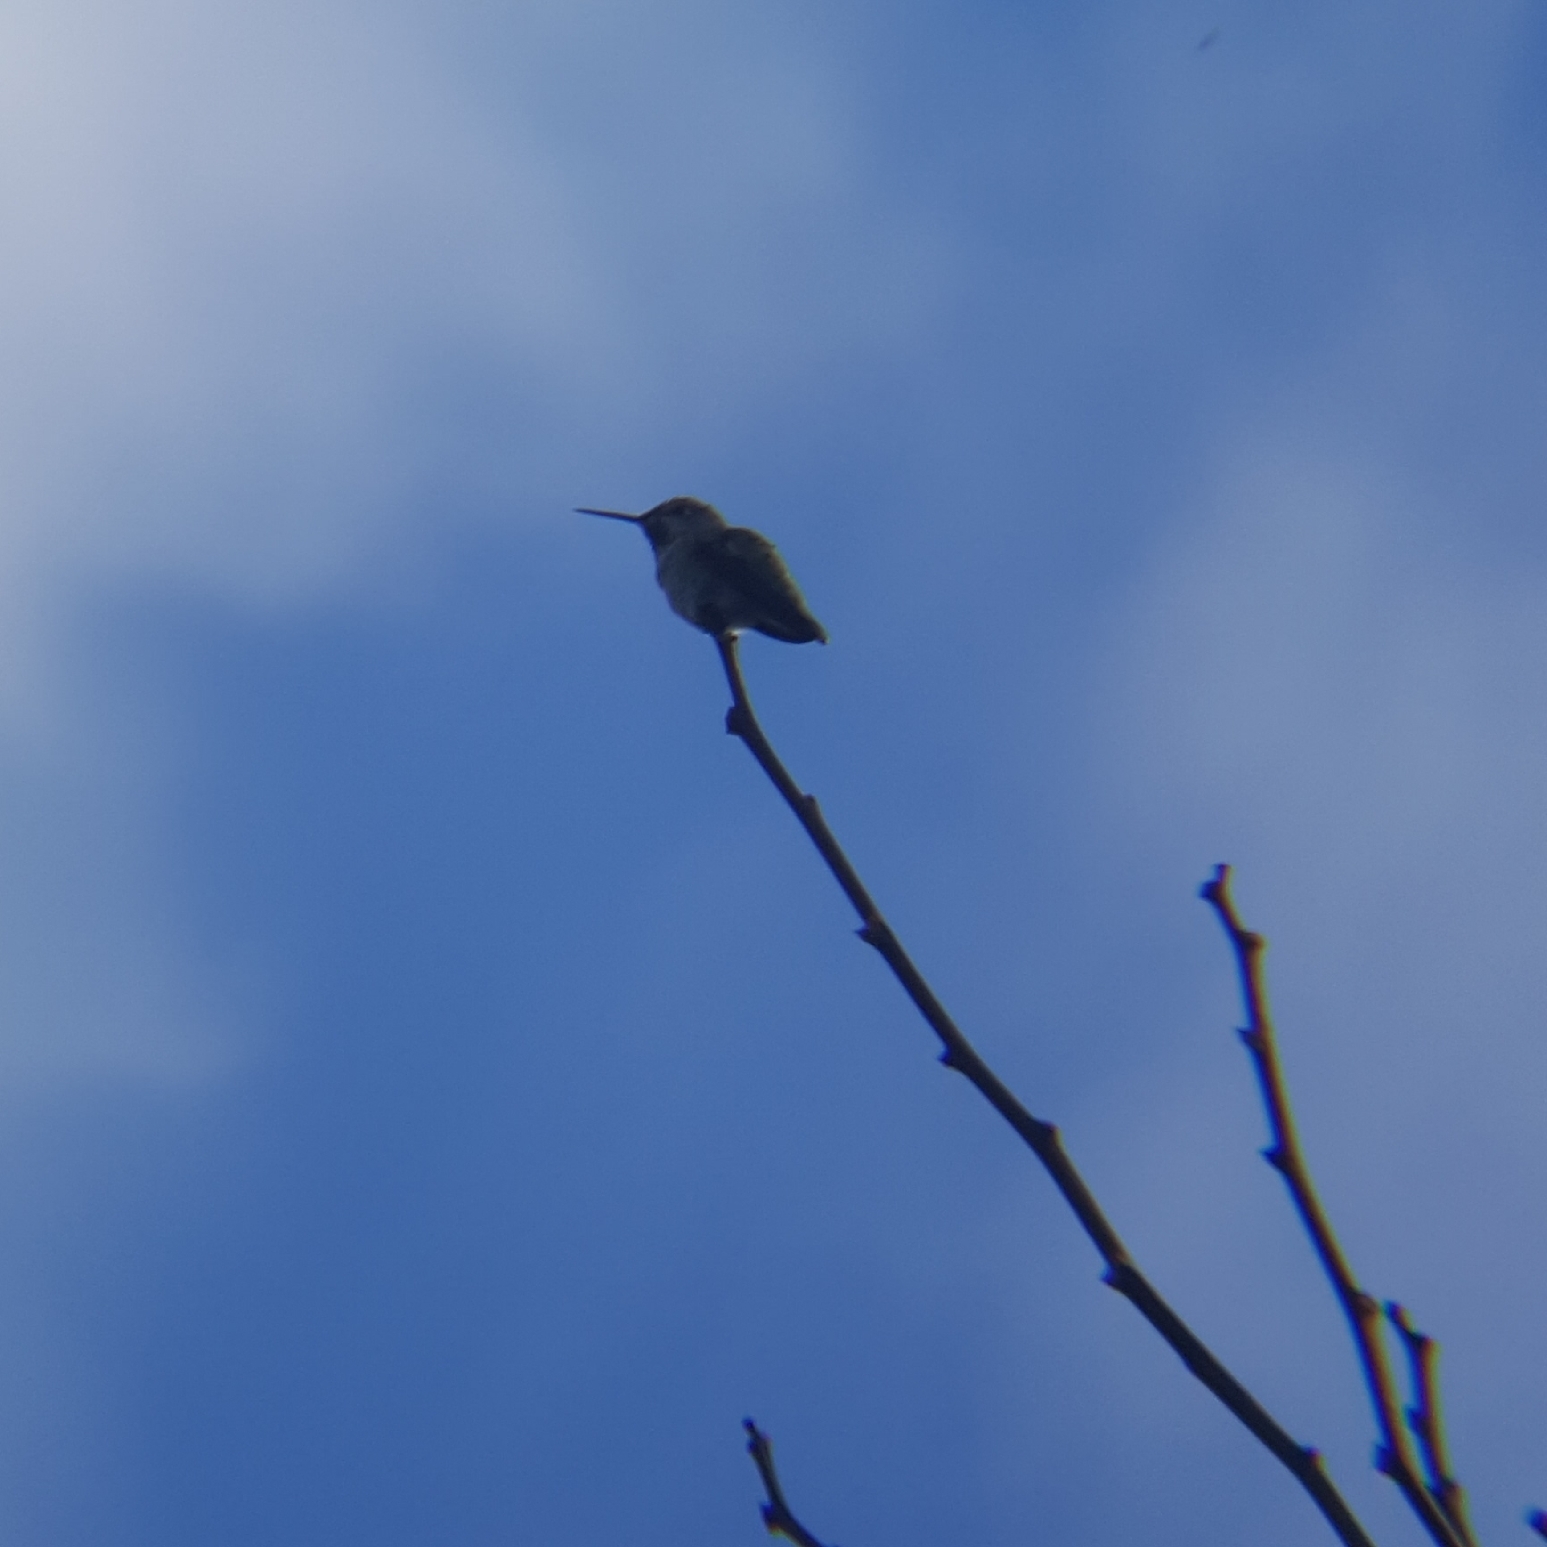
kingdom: Animalia
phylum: Chordata
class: Aves
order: Apodiformes
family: Trochilidae
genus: Calypte
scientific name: Calypte anna
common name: Anna's hummingbird
